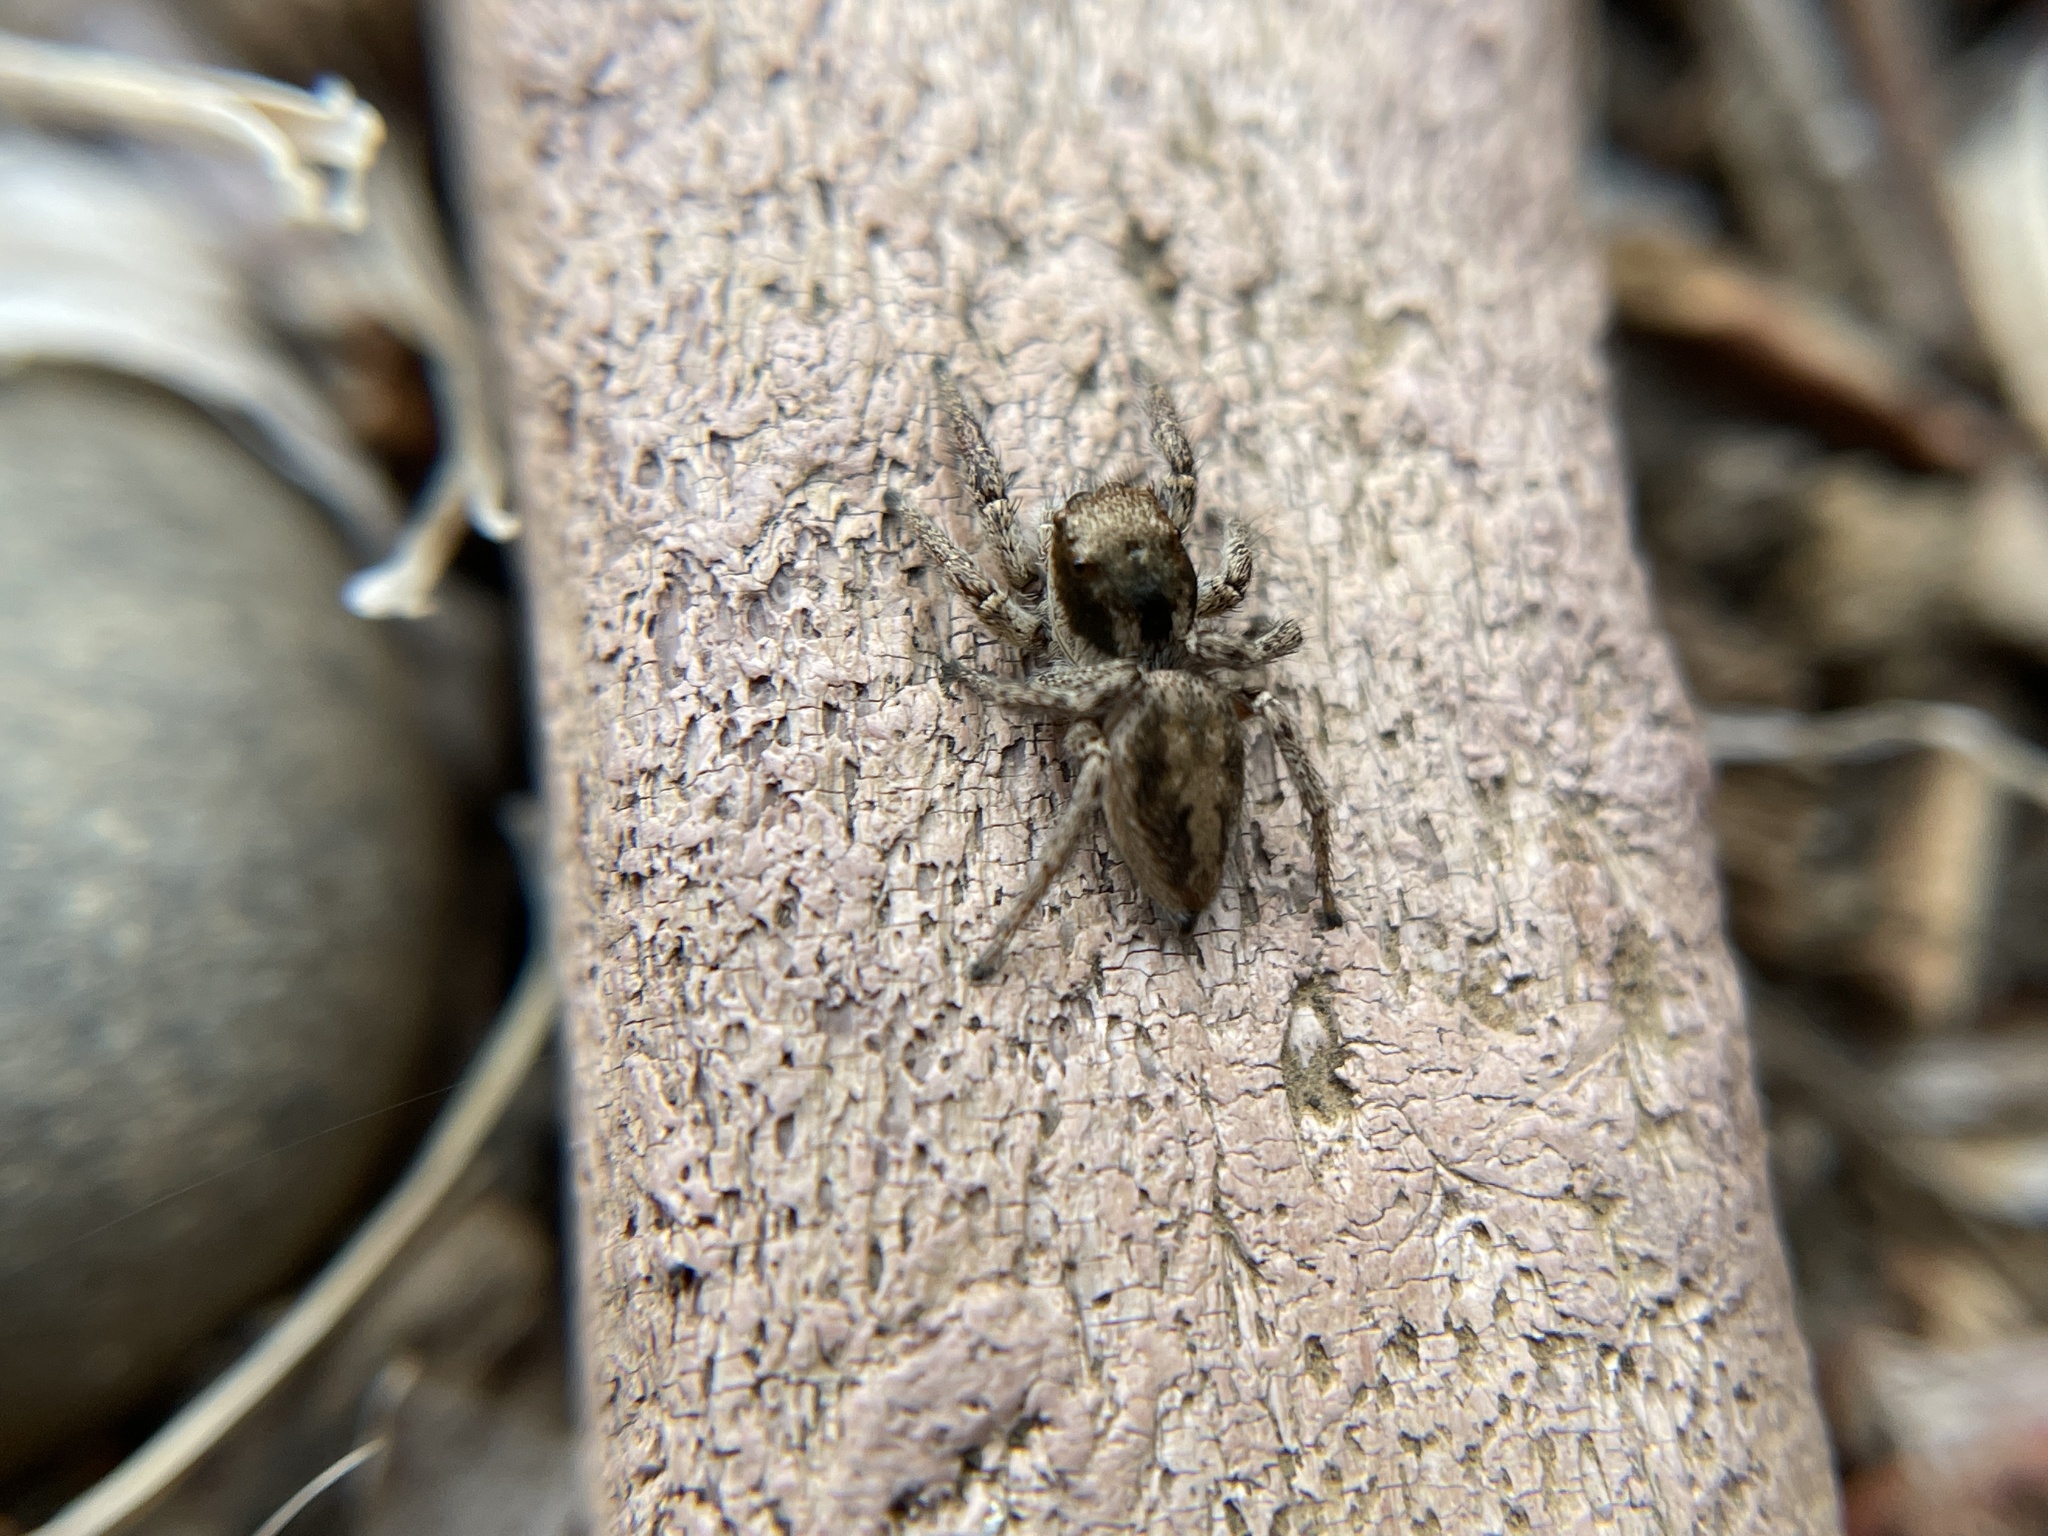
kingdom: Animalia
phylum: Arthropoda
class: Arachnida
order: Araneae
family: Salticidae
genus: Habronattus
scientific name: Habronattus pyrrithrix
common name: Jumping spider
